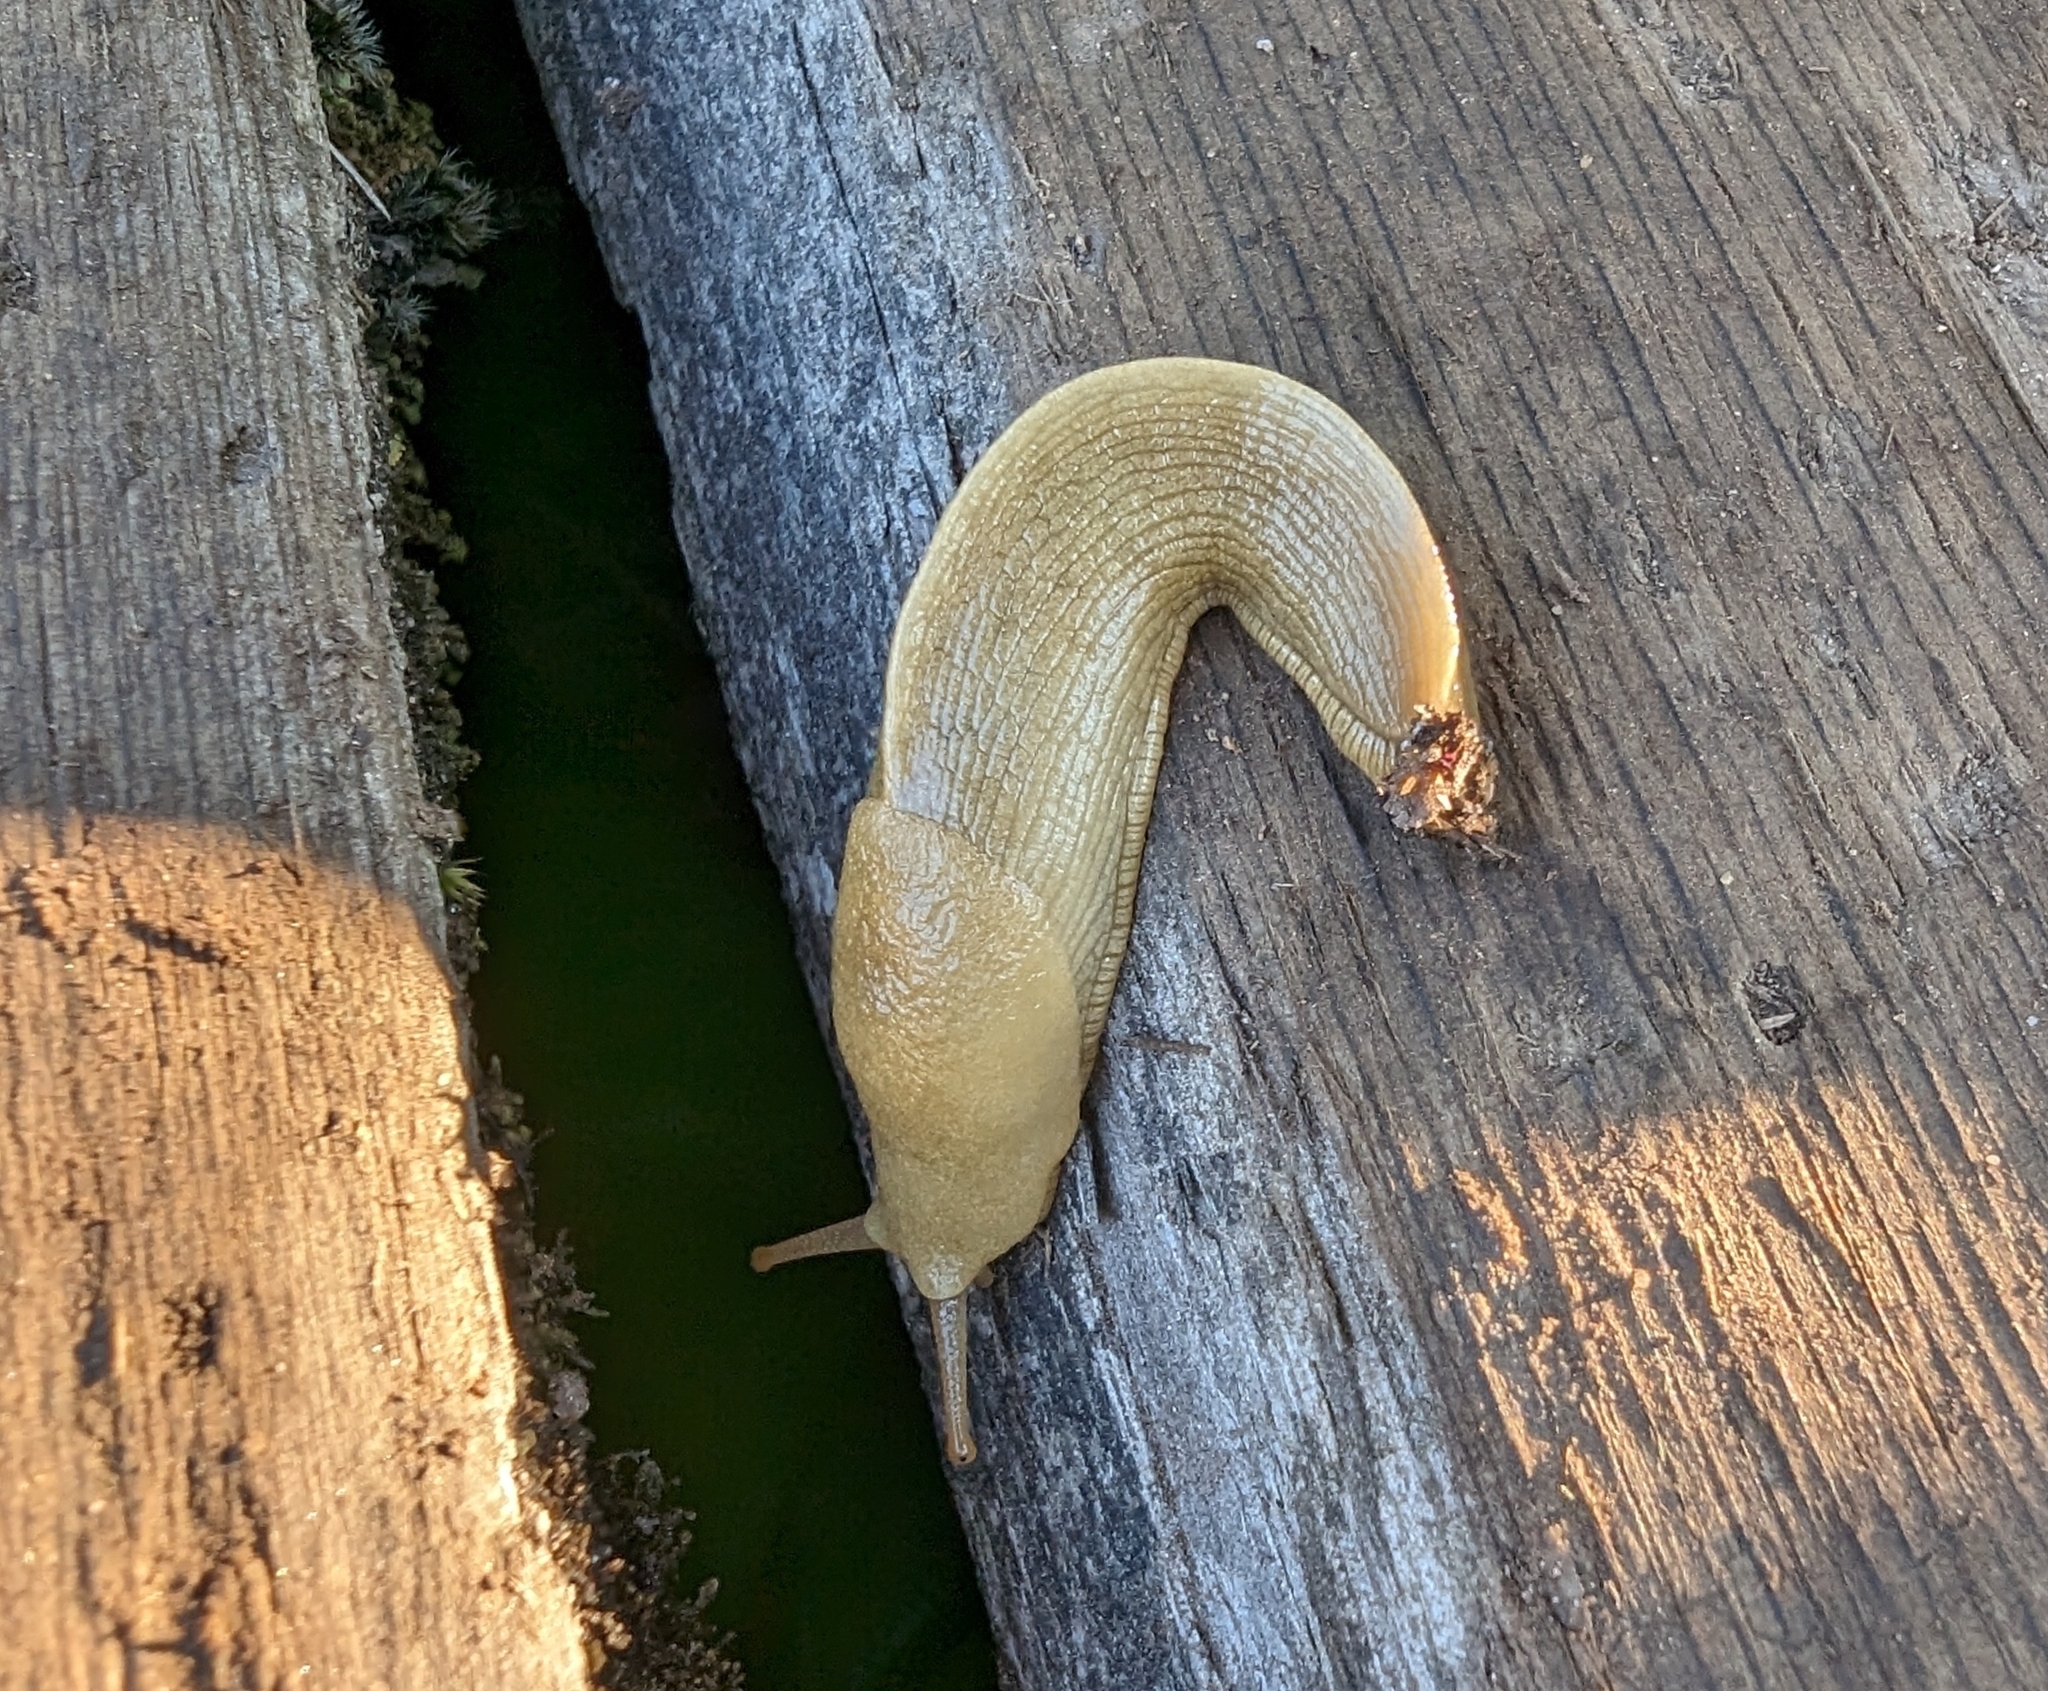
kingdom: Animalia
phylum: Mollusca
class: Gastropoda
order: Stylommatophora
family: Ariolimacidae
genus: Ariolimax
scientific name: Ariolimax columbianus
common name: Pacific banana slug
